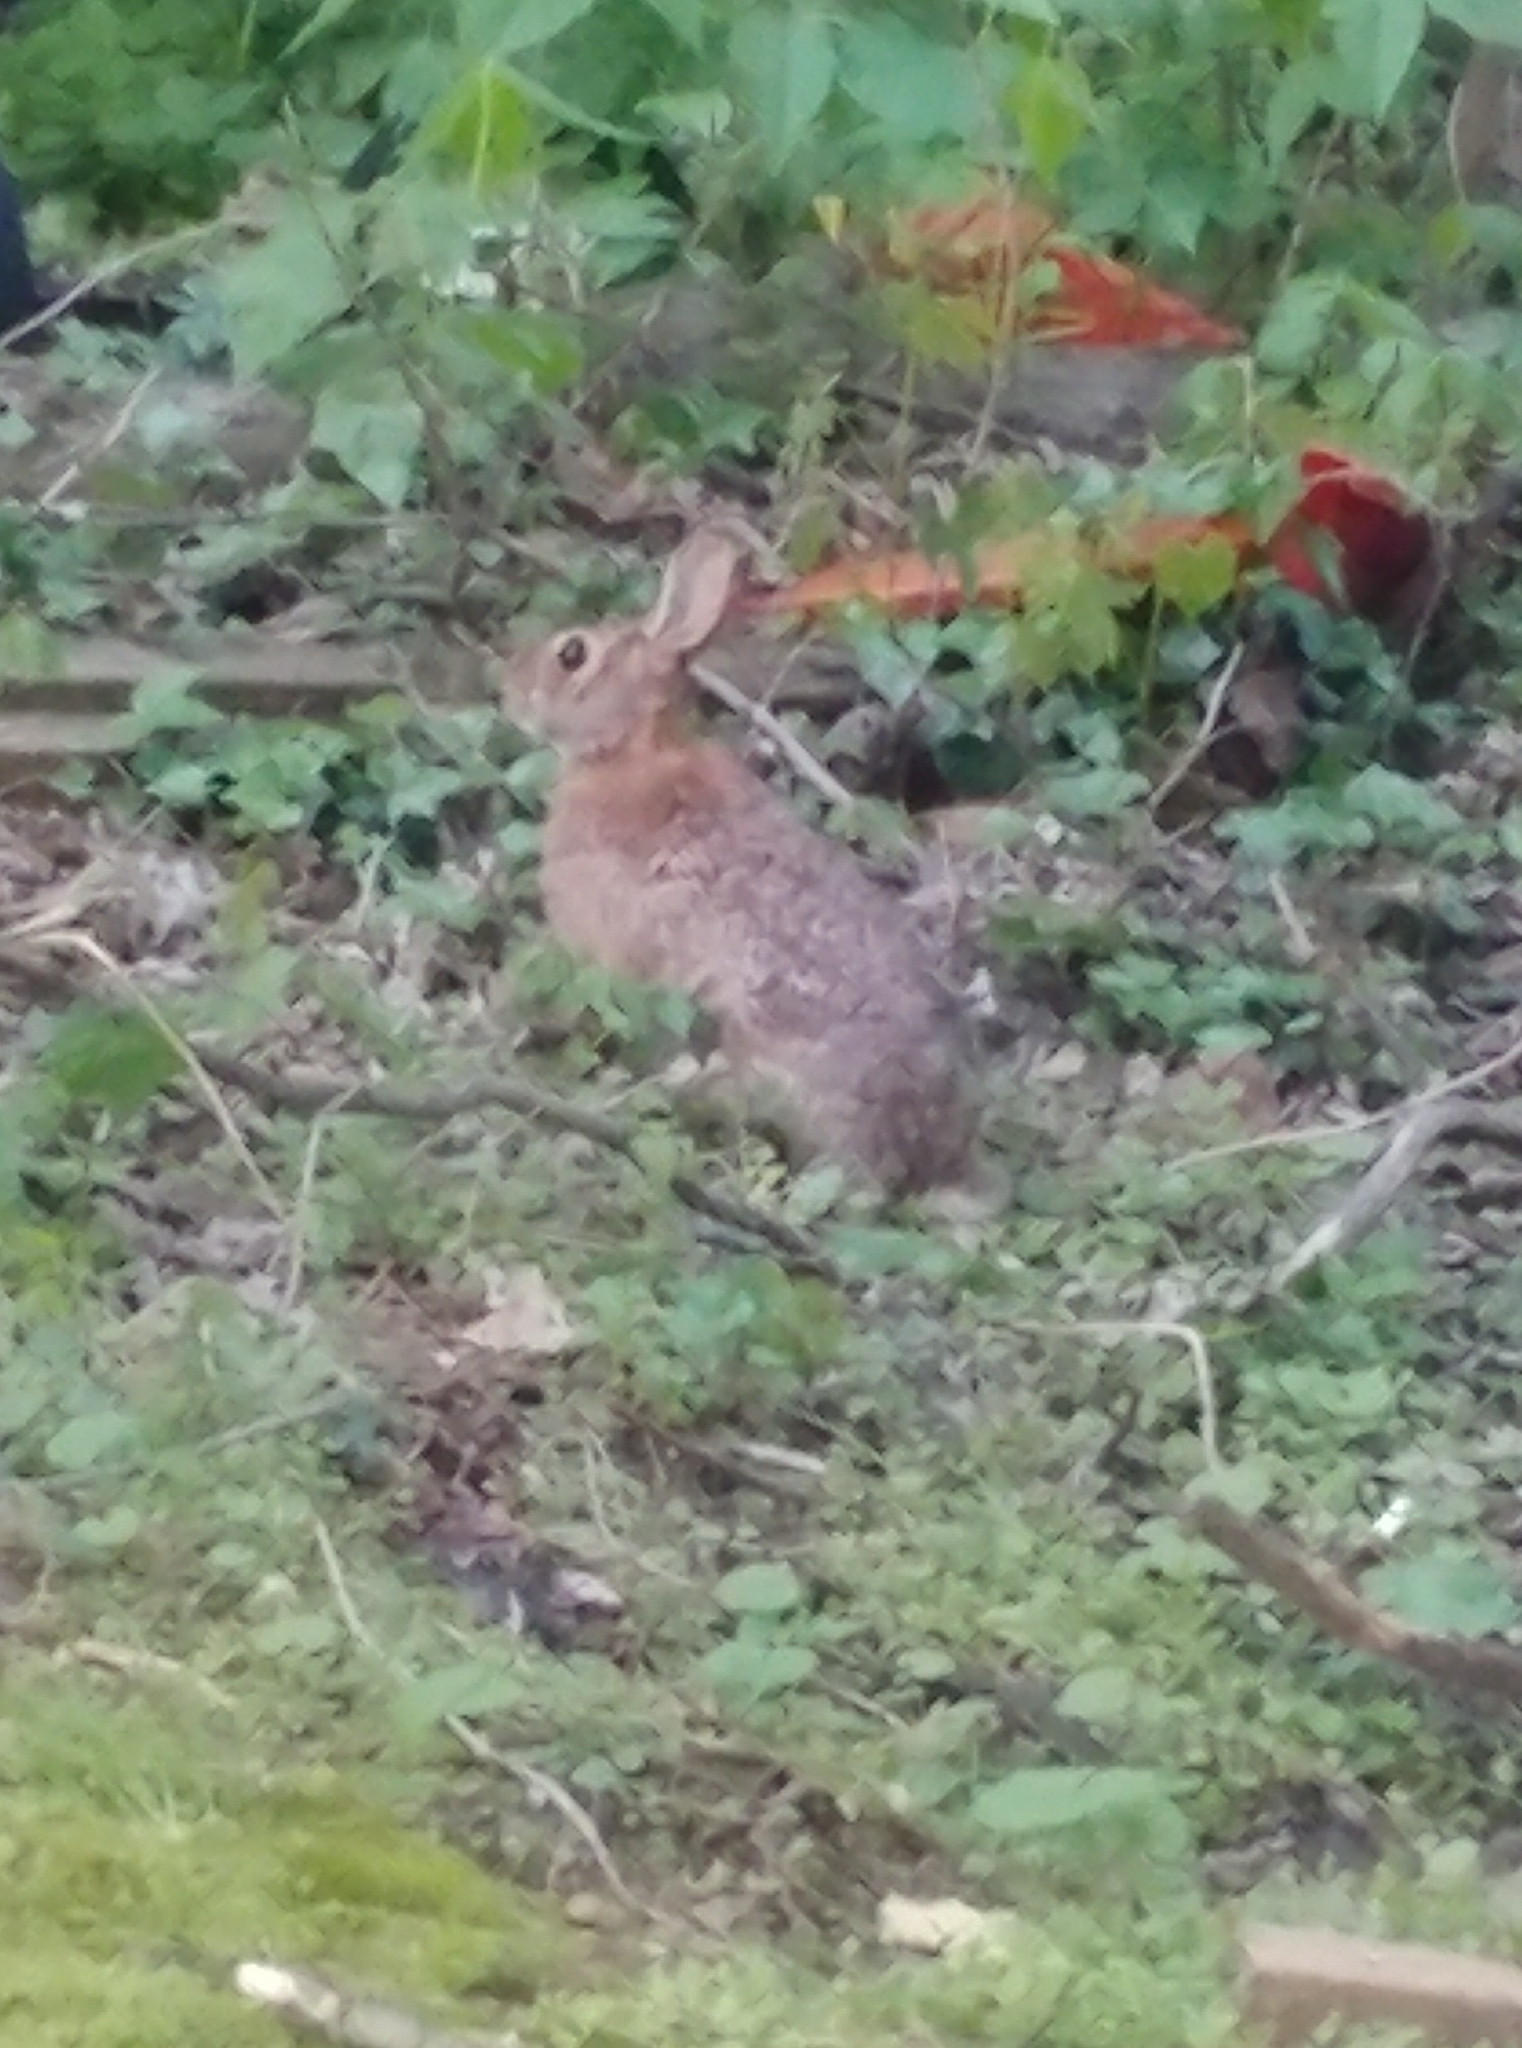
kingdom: Animalia
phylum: Chordata
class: Mammalia
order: Lagomorpha
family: Leporidae
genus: Sylvilagus
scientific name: Sylvilagus floridanus
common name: Eastern cottontail
